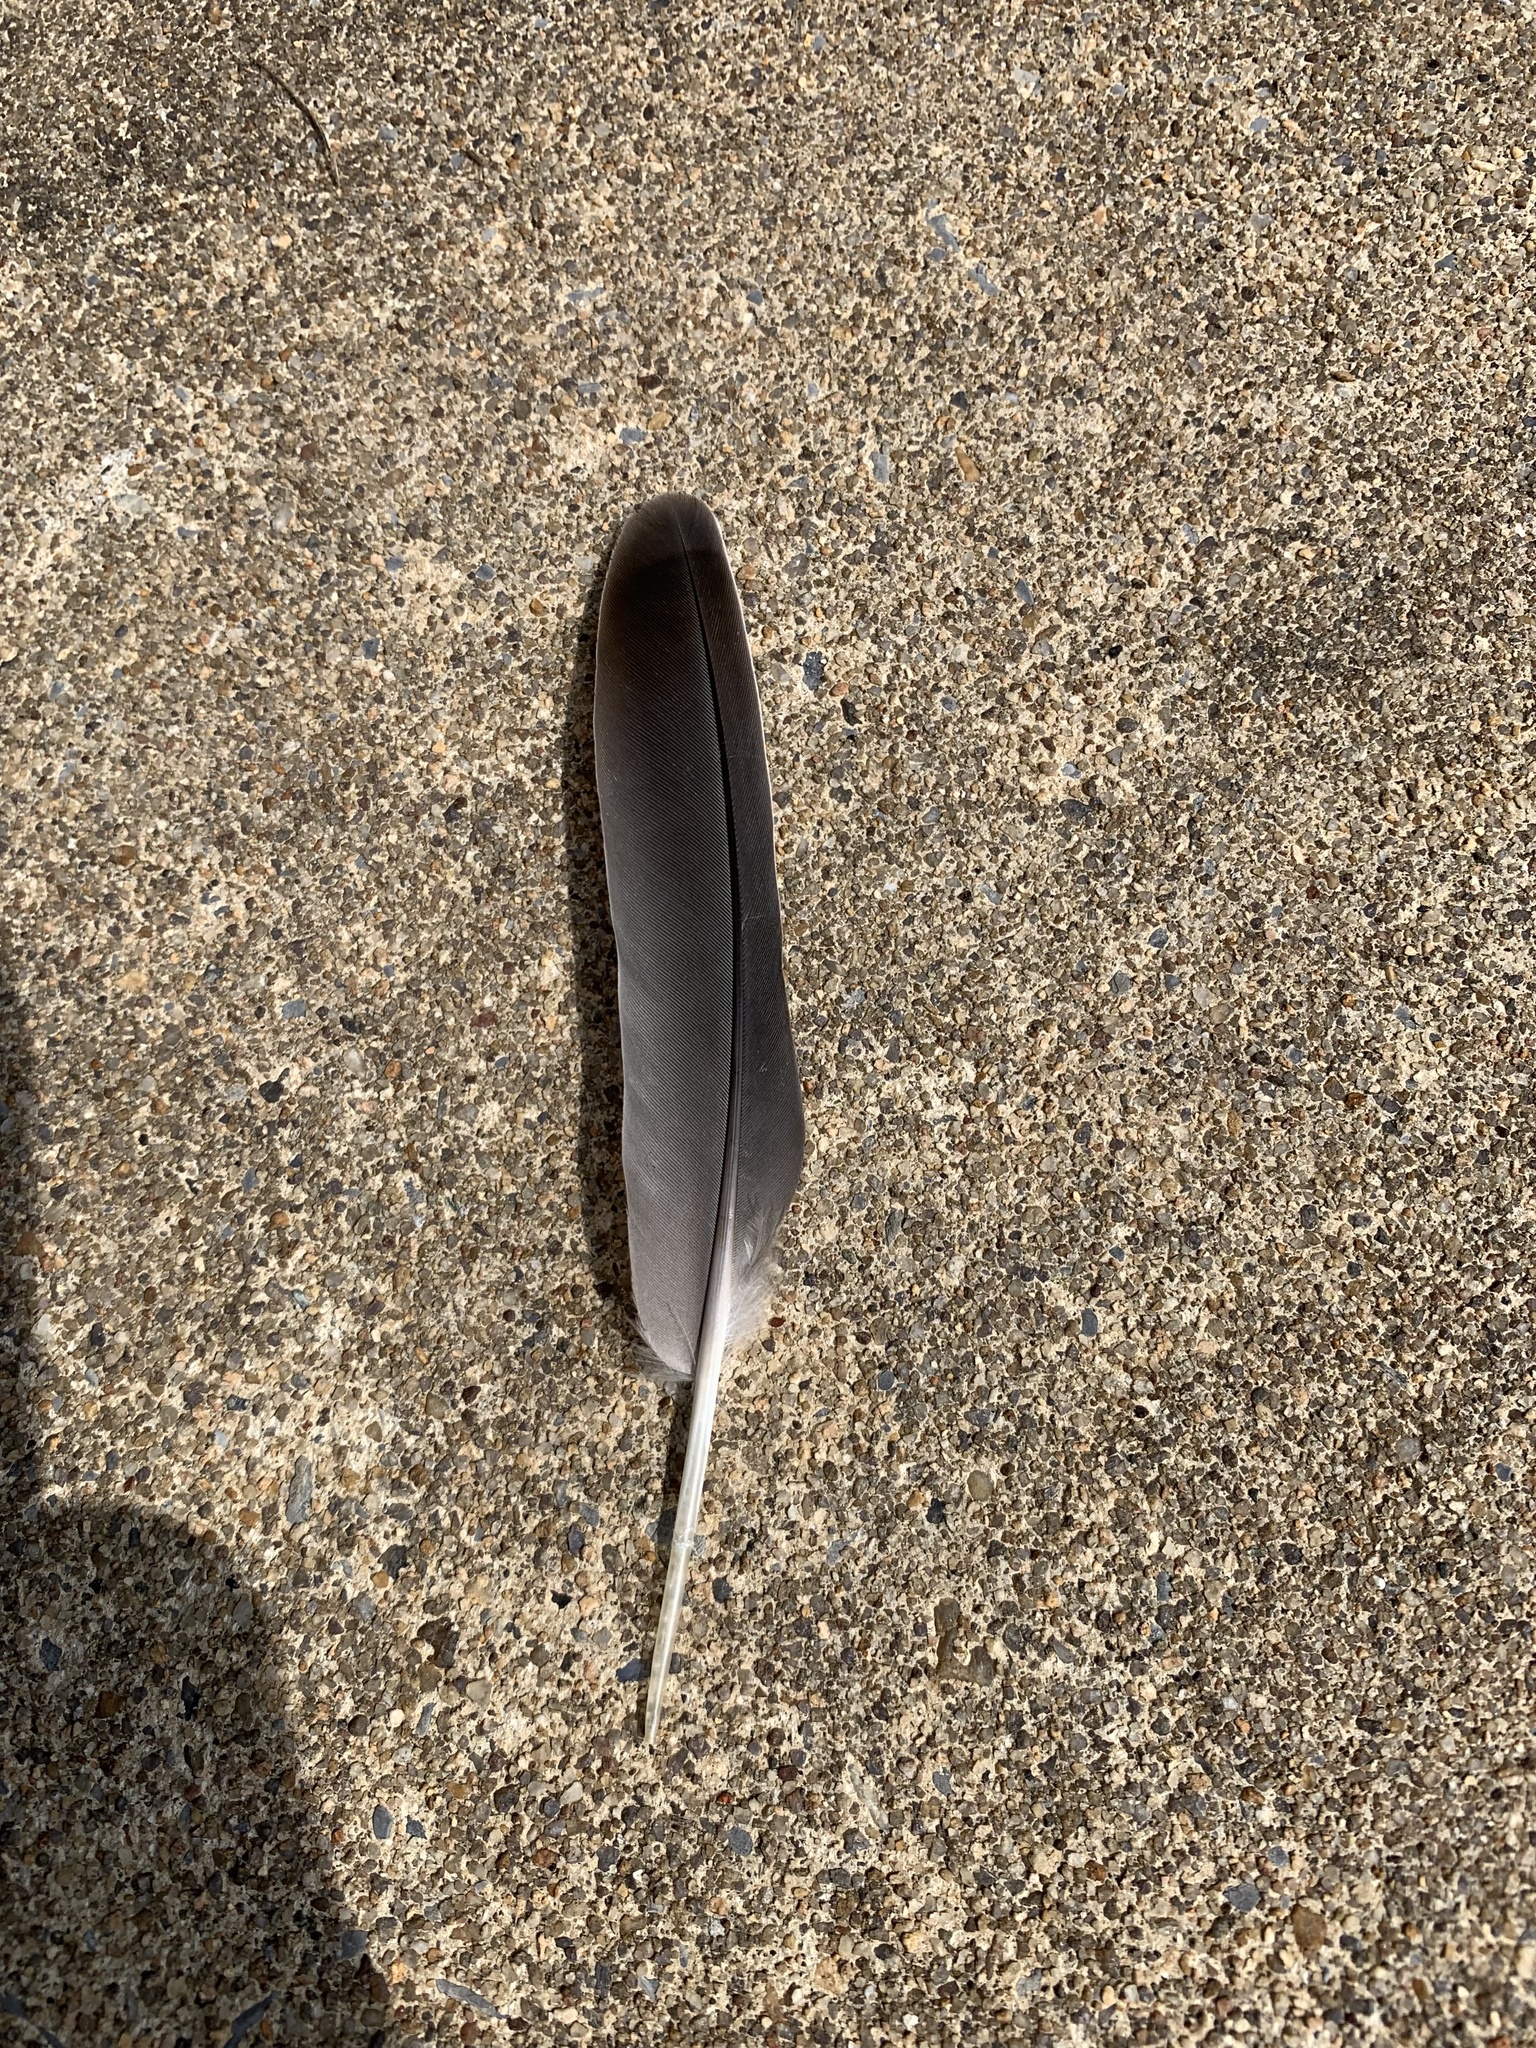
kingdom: Animalia
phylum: Chordata
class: Aves
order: Columbiformes
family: Columbidae
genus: Zenaida
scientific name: Zenaida macroura
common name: Mourning dove
